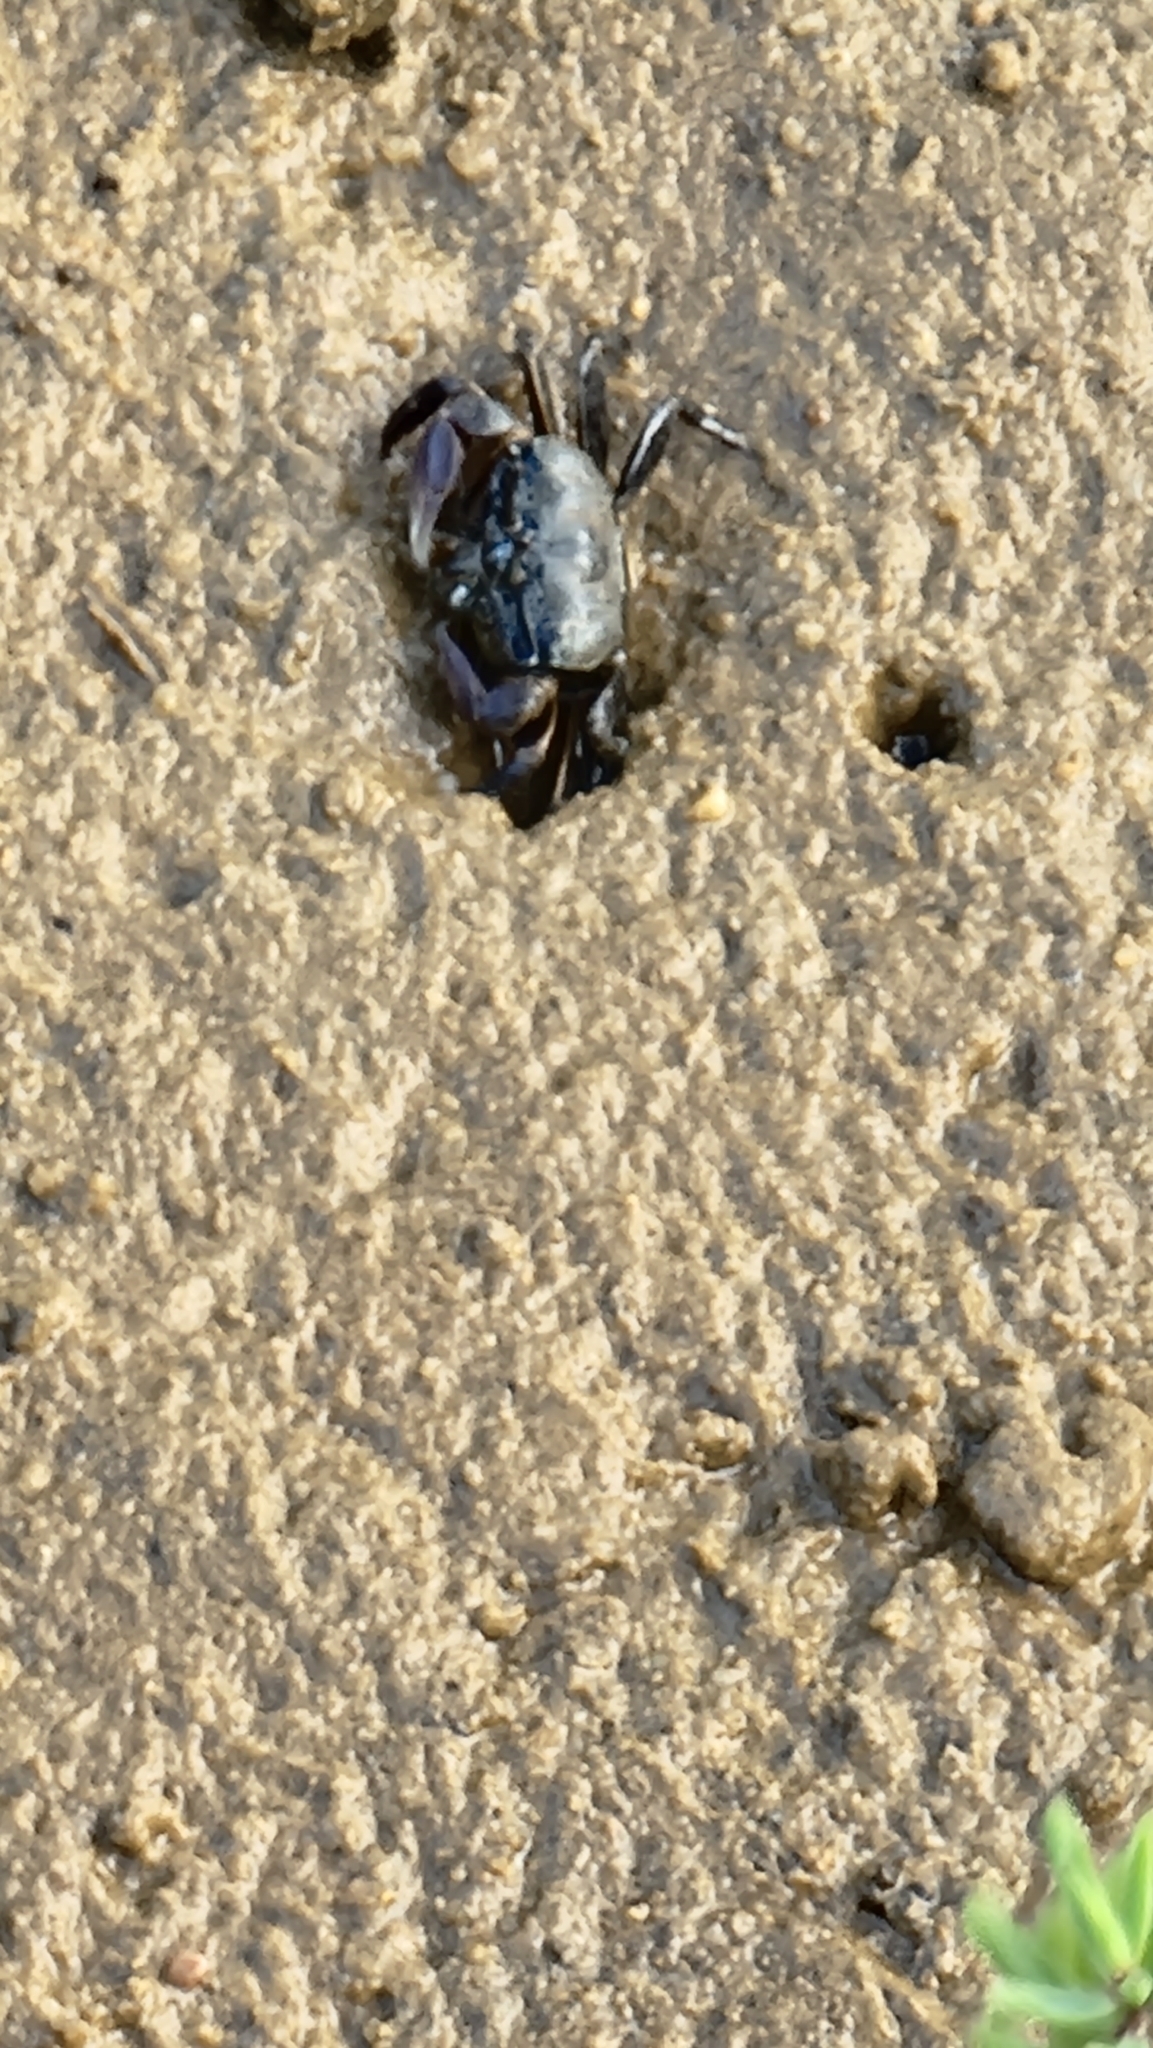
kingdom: Animalia
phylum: Arthropoda
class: Malacostraca
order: Decapoda
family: Heloeciidae
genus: Heloecius
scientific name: Heloecius cordiformis
